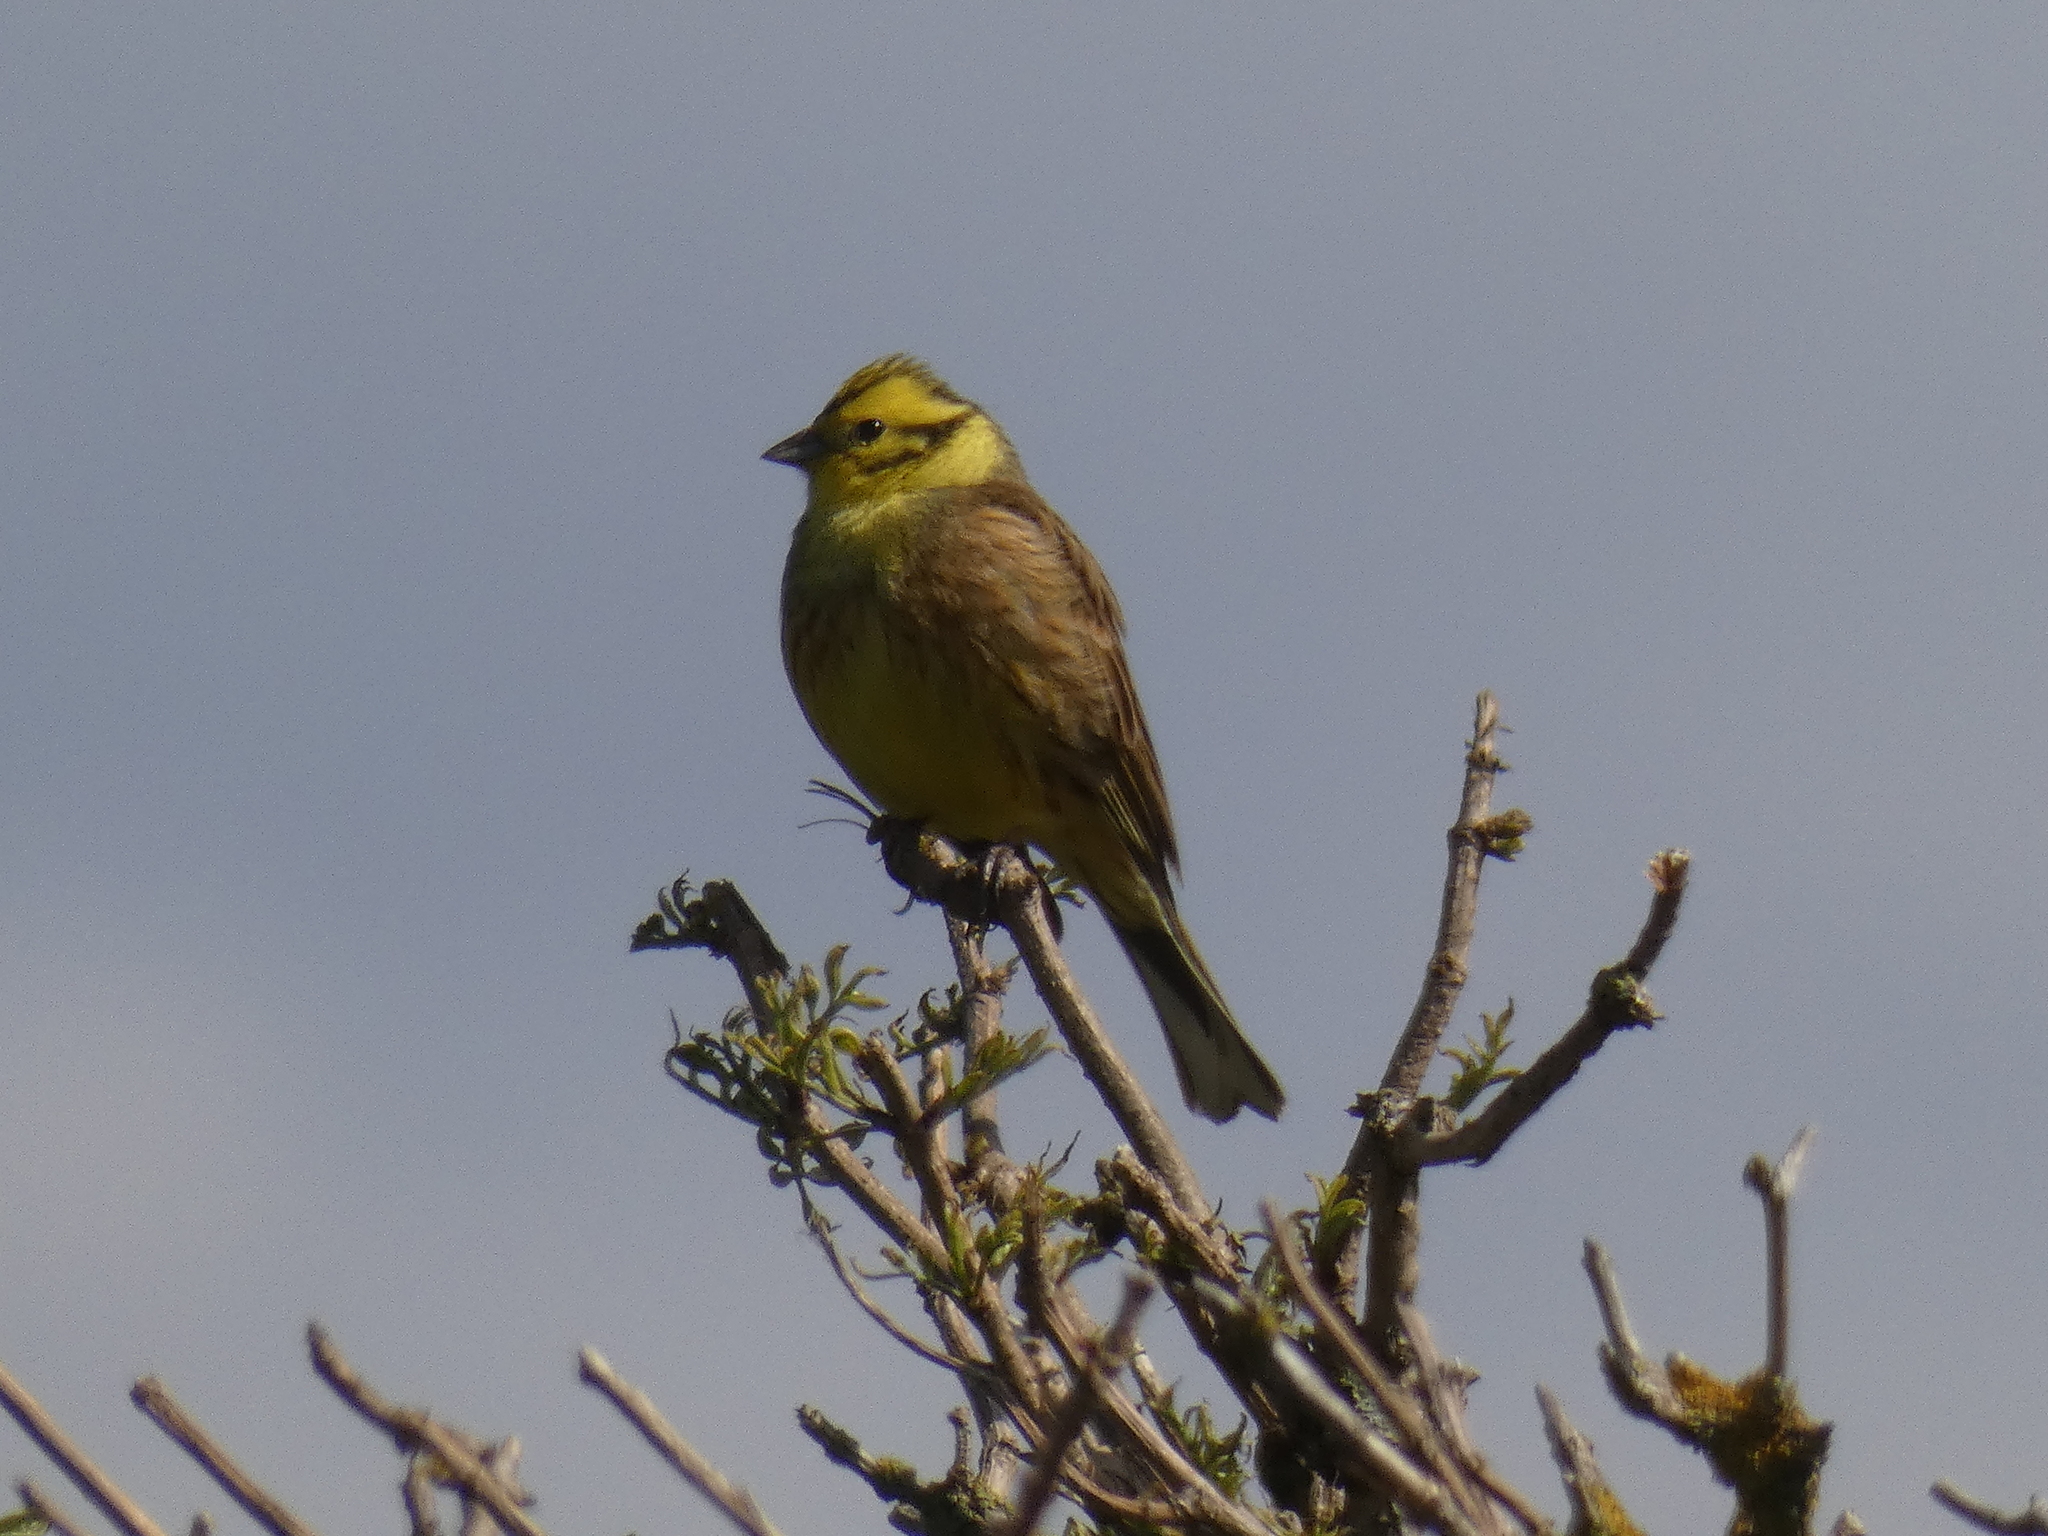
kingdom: Animalia
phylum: Chordata
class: Aves
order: Passeriformes
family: Emberizidae
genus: Emberiza
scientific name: Emberiza citrinella
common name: Yellowhammer
